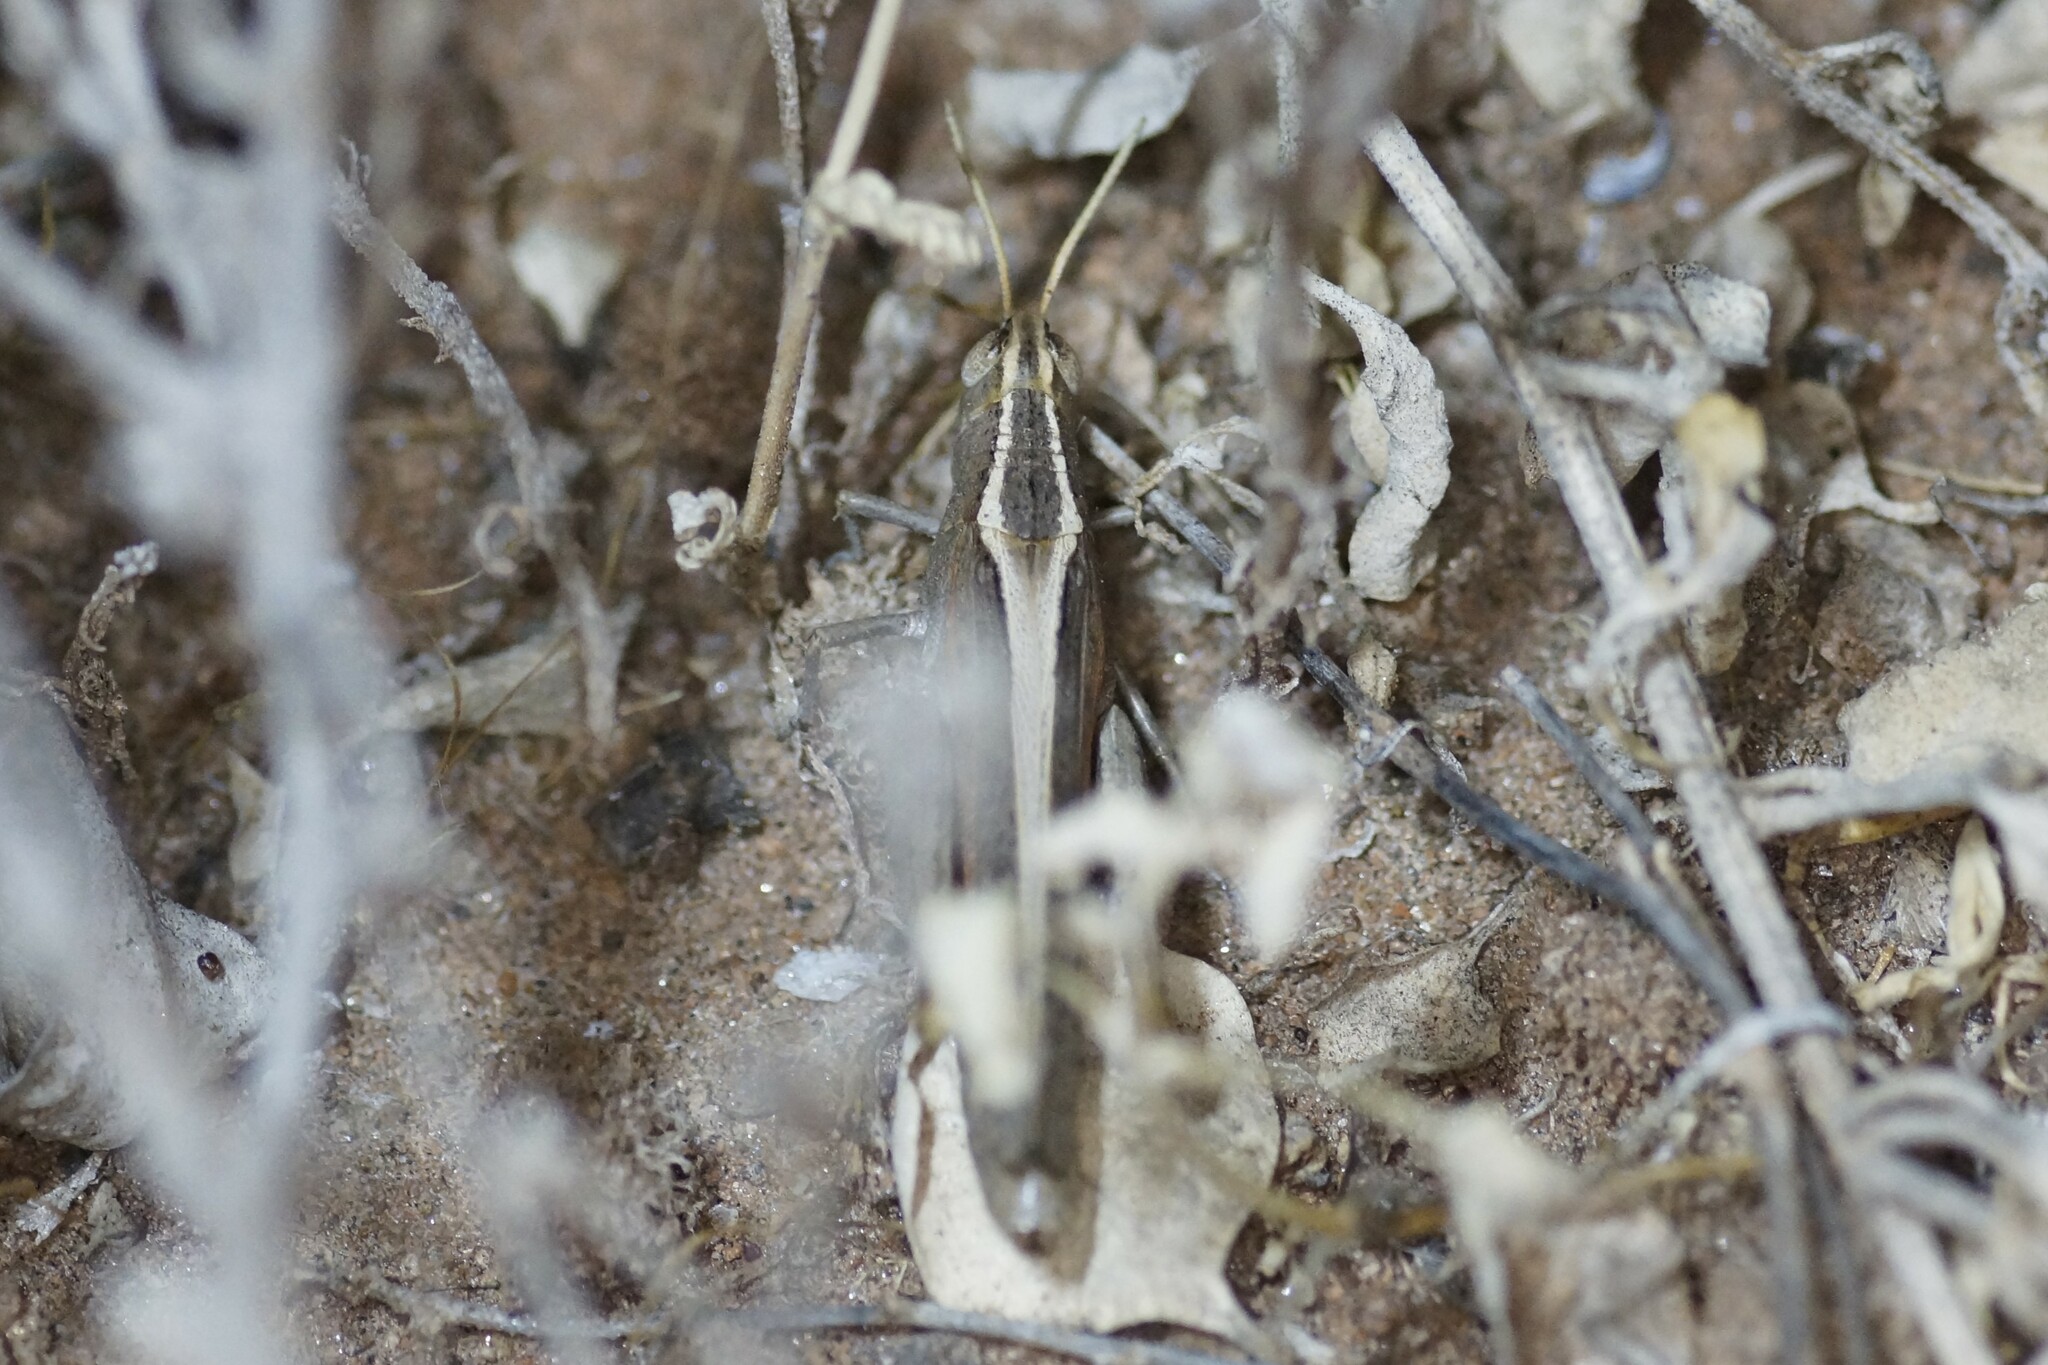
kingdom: Animalia
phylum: Arthropoda
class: Insecta
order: Orthoptera
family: Acrididae
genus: Apotropis
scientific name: Apotropis vittata
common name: Common striped grasshopper
